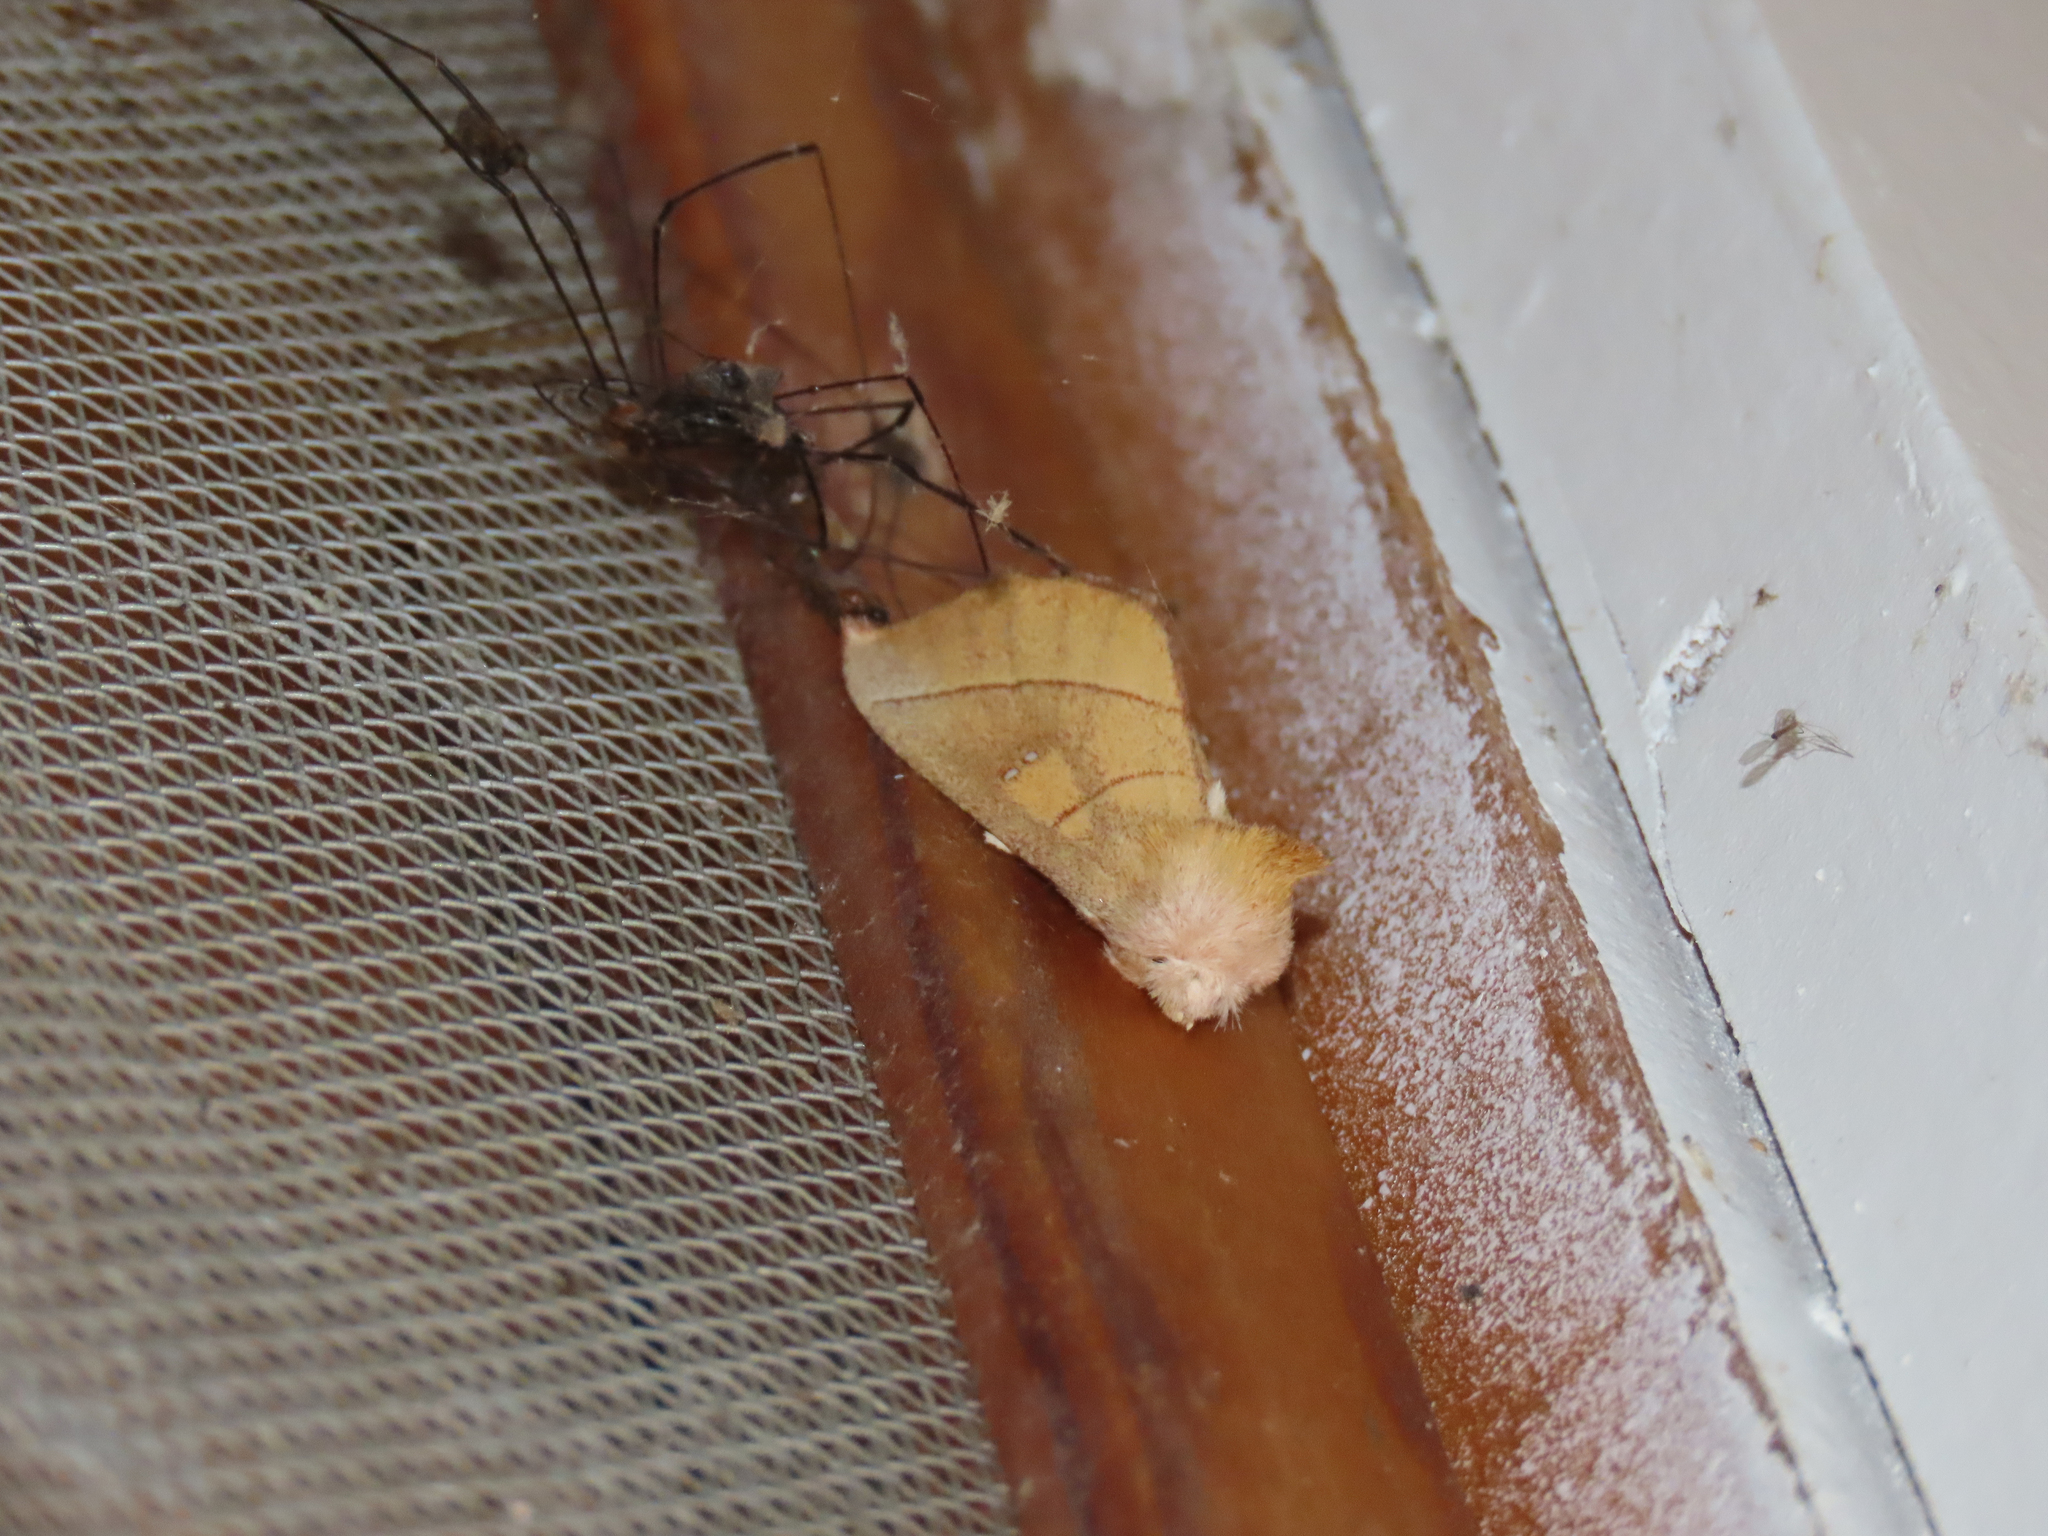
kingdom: Animalia
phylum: Arthropoda
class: Insecta
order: Lepidoptera
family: Notodontidae
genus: Nadata
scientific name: Nadata gibbosa
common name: White-dotted prominent
